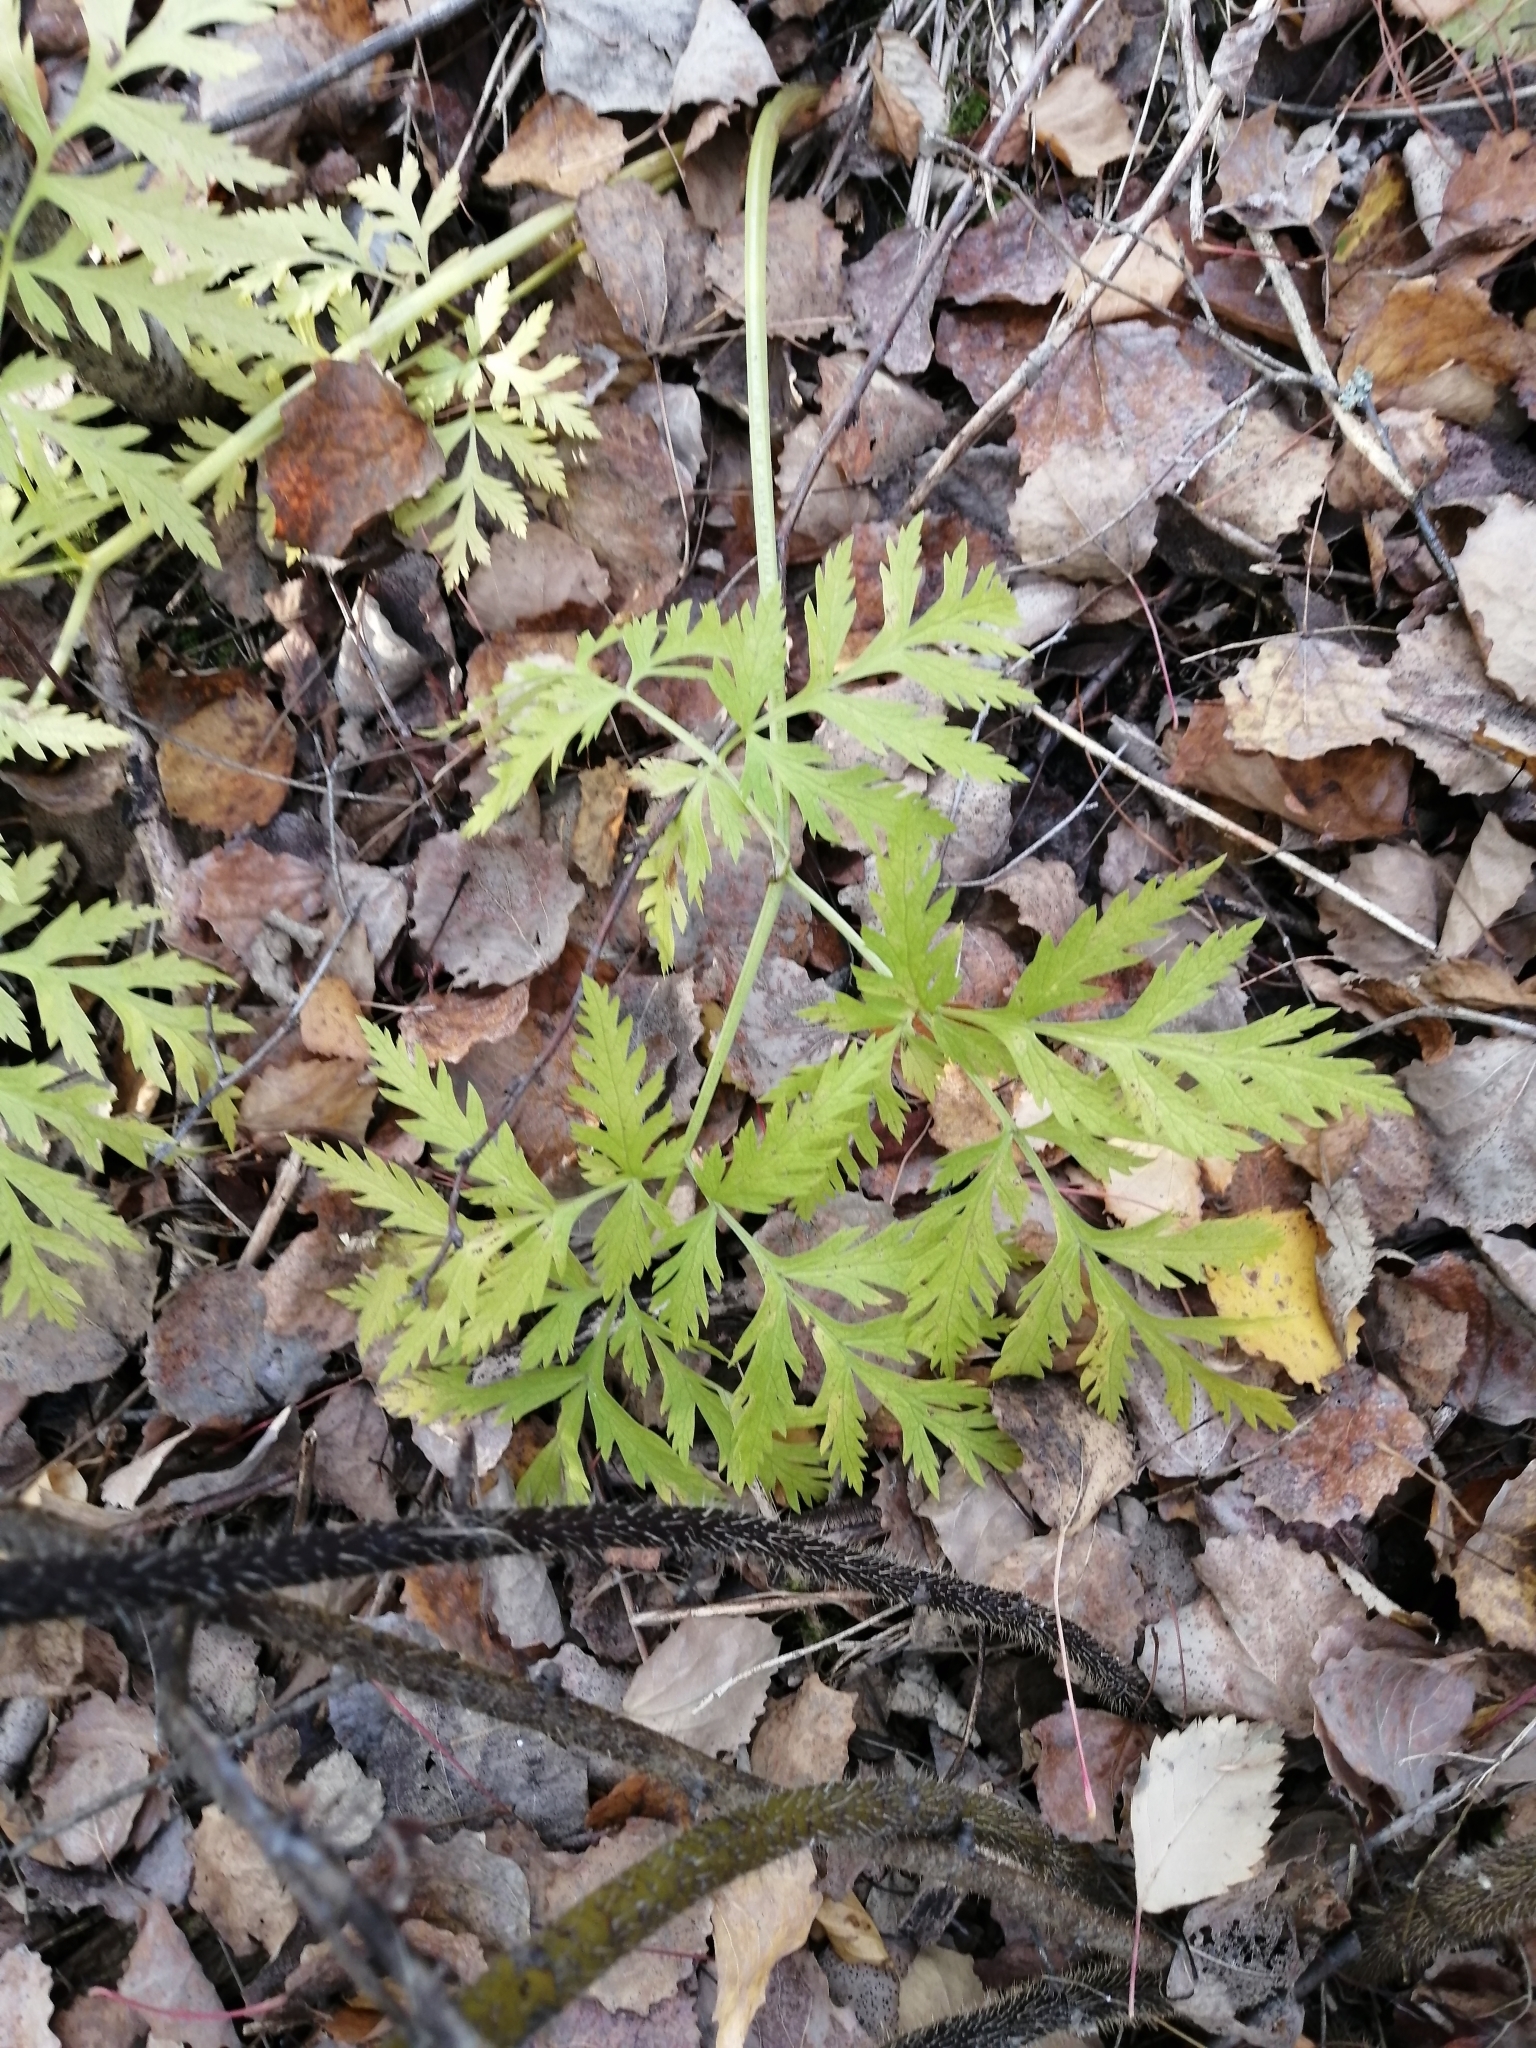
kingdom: Plantae
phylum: Tracheophyta
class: Magnoliopsida
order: Apiales
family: Apiaceae
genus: Pleurospermum
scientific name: Pleurospermum uralense
